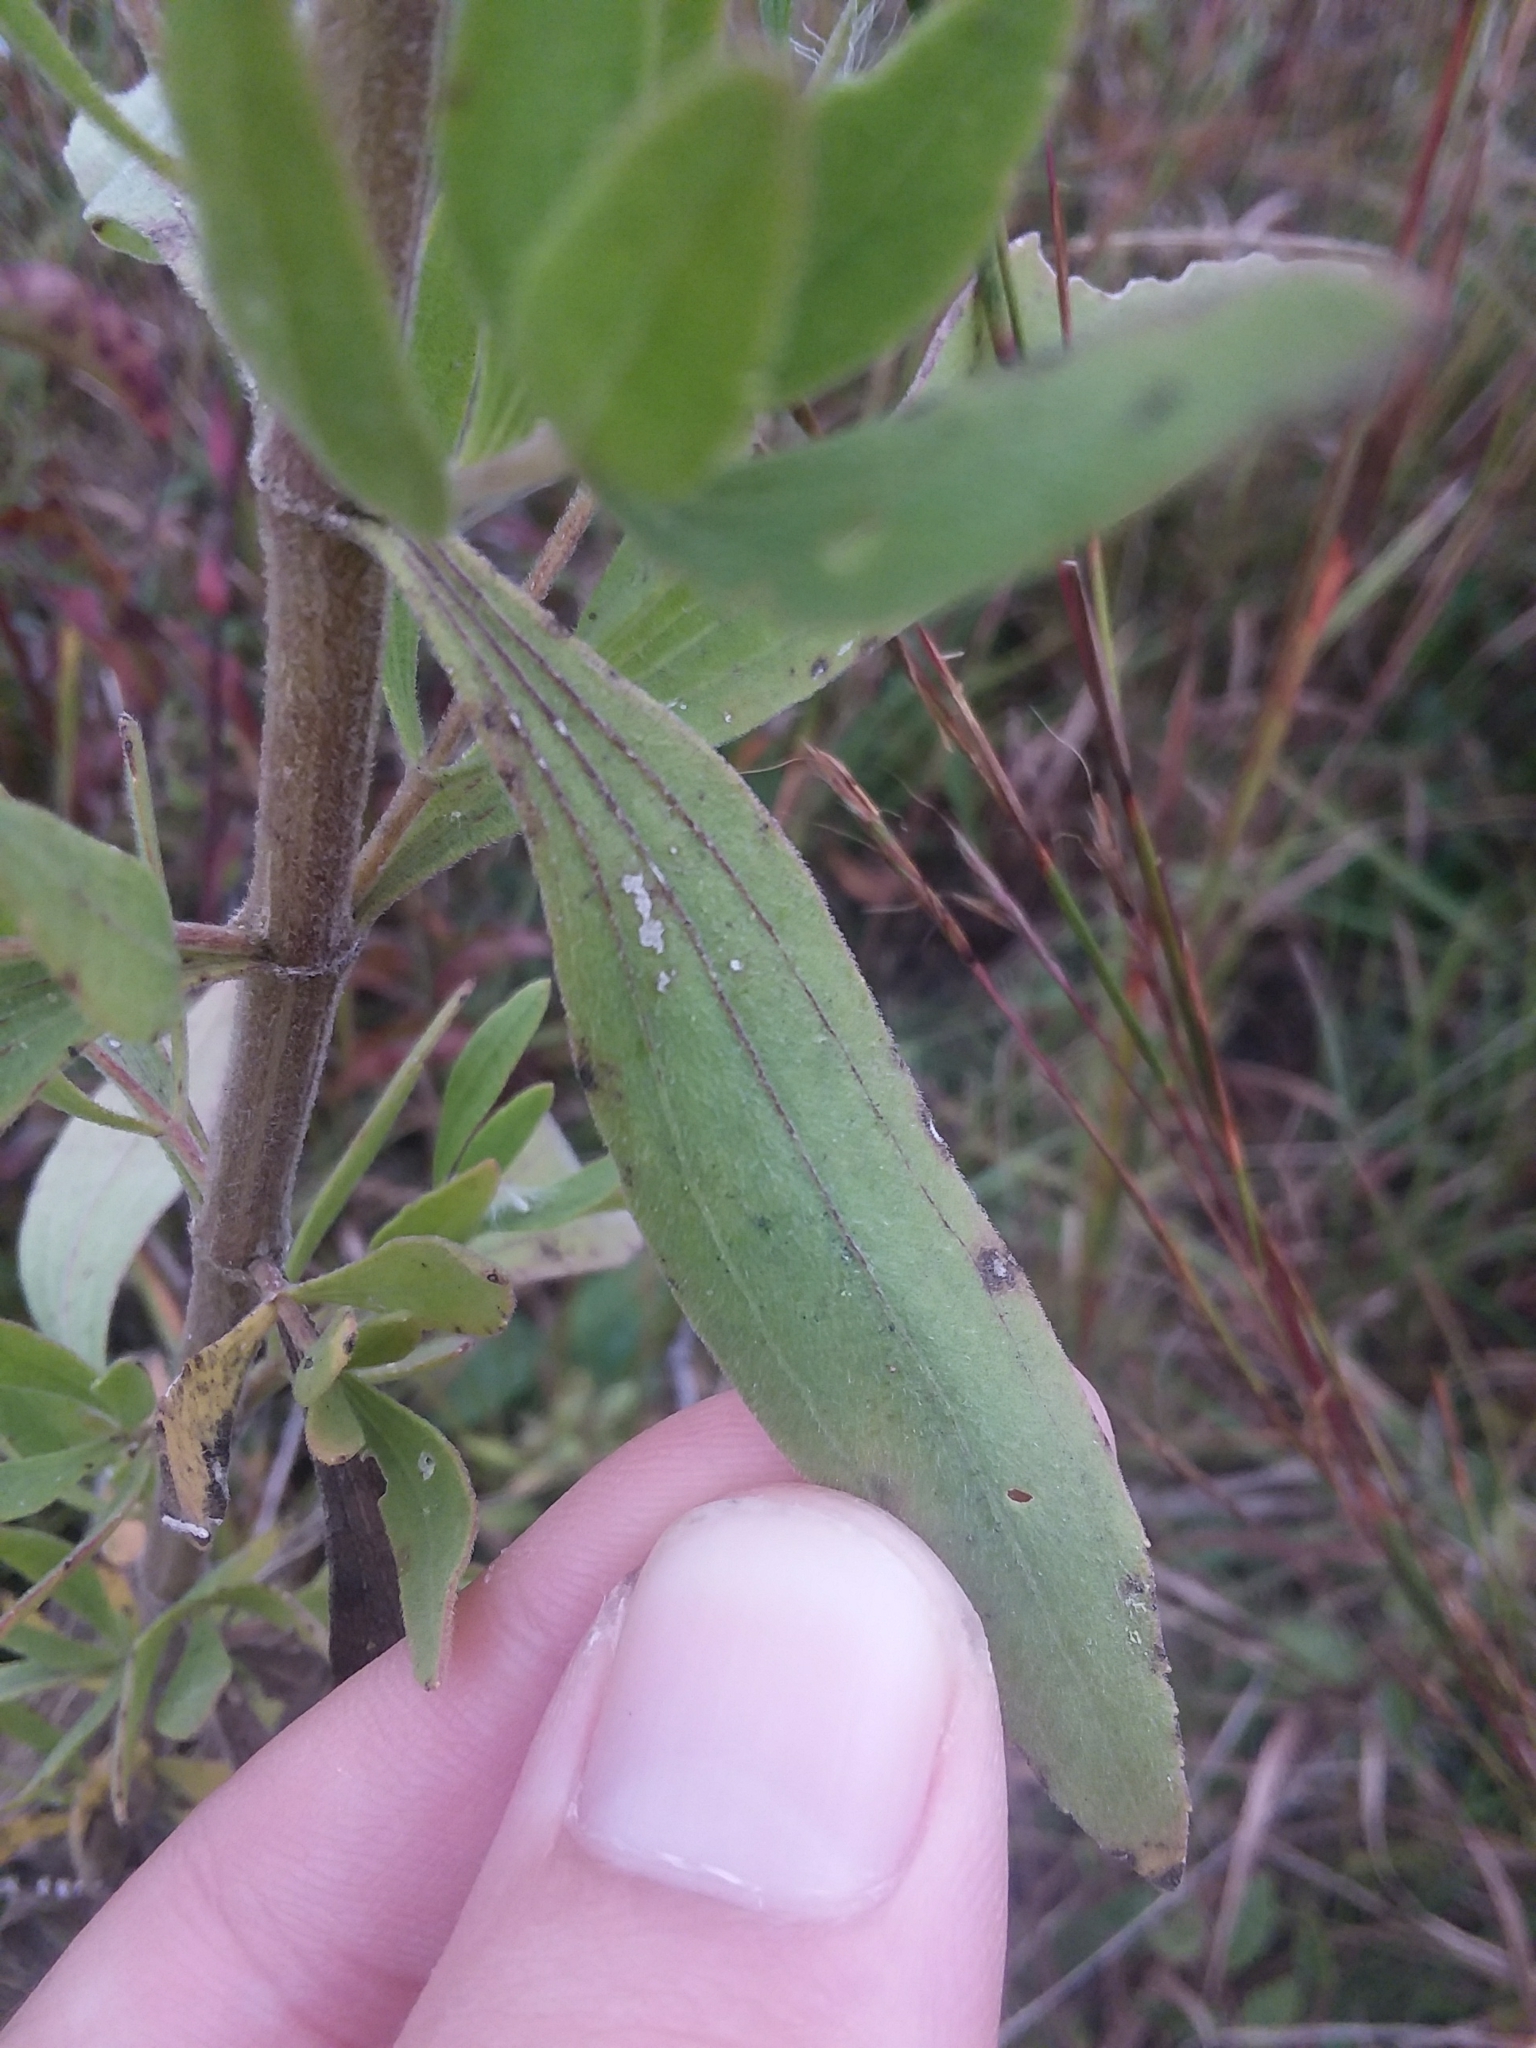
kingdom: Plantae
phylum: Tracheophyta
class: Magnoliopsida
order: Asterales
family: Asteraceae
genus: Eupatorium
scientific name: Eupatorium altissimum
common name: Tall thoroughwort
